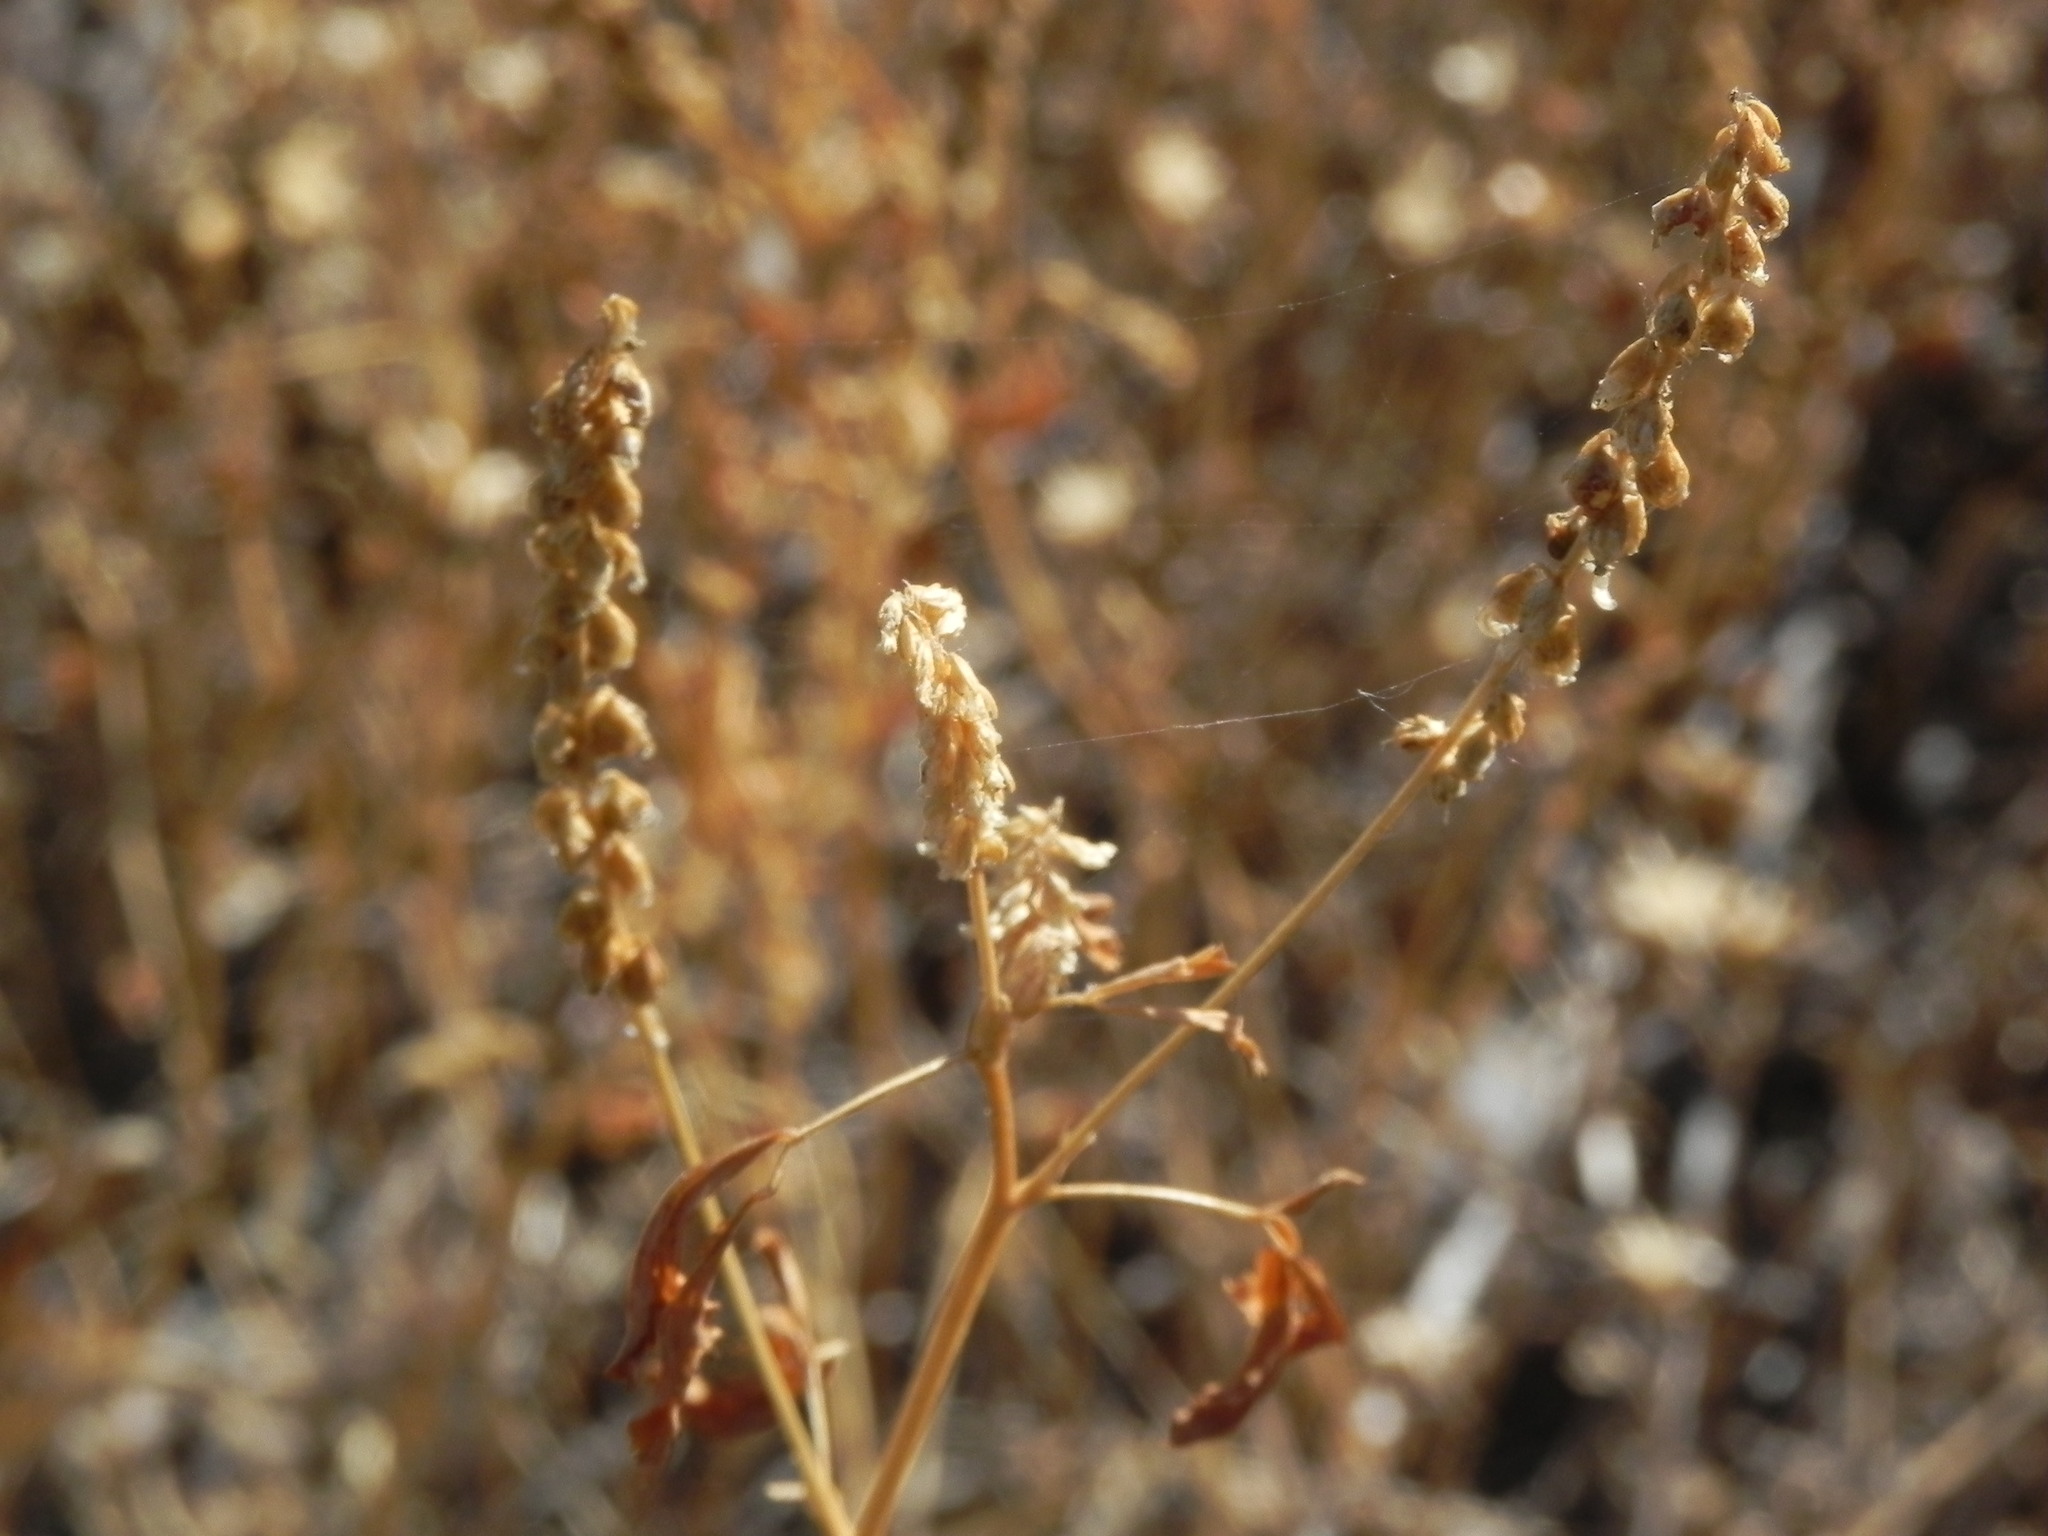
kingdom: Plantae
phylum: Tracheophyta
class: Magnoliopsida
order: Fabales
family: Fabaceae
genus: Melilotus
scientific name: Melilotus indicus
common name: Small melilot
